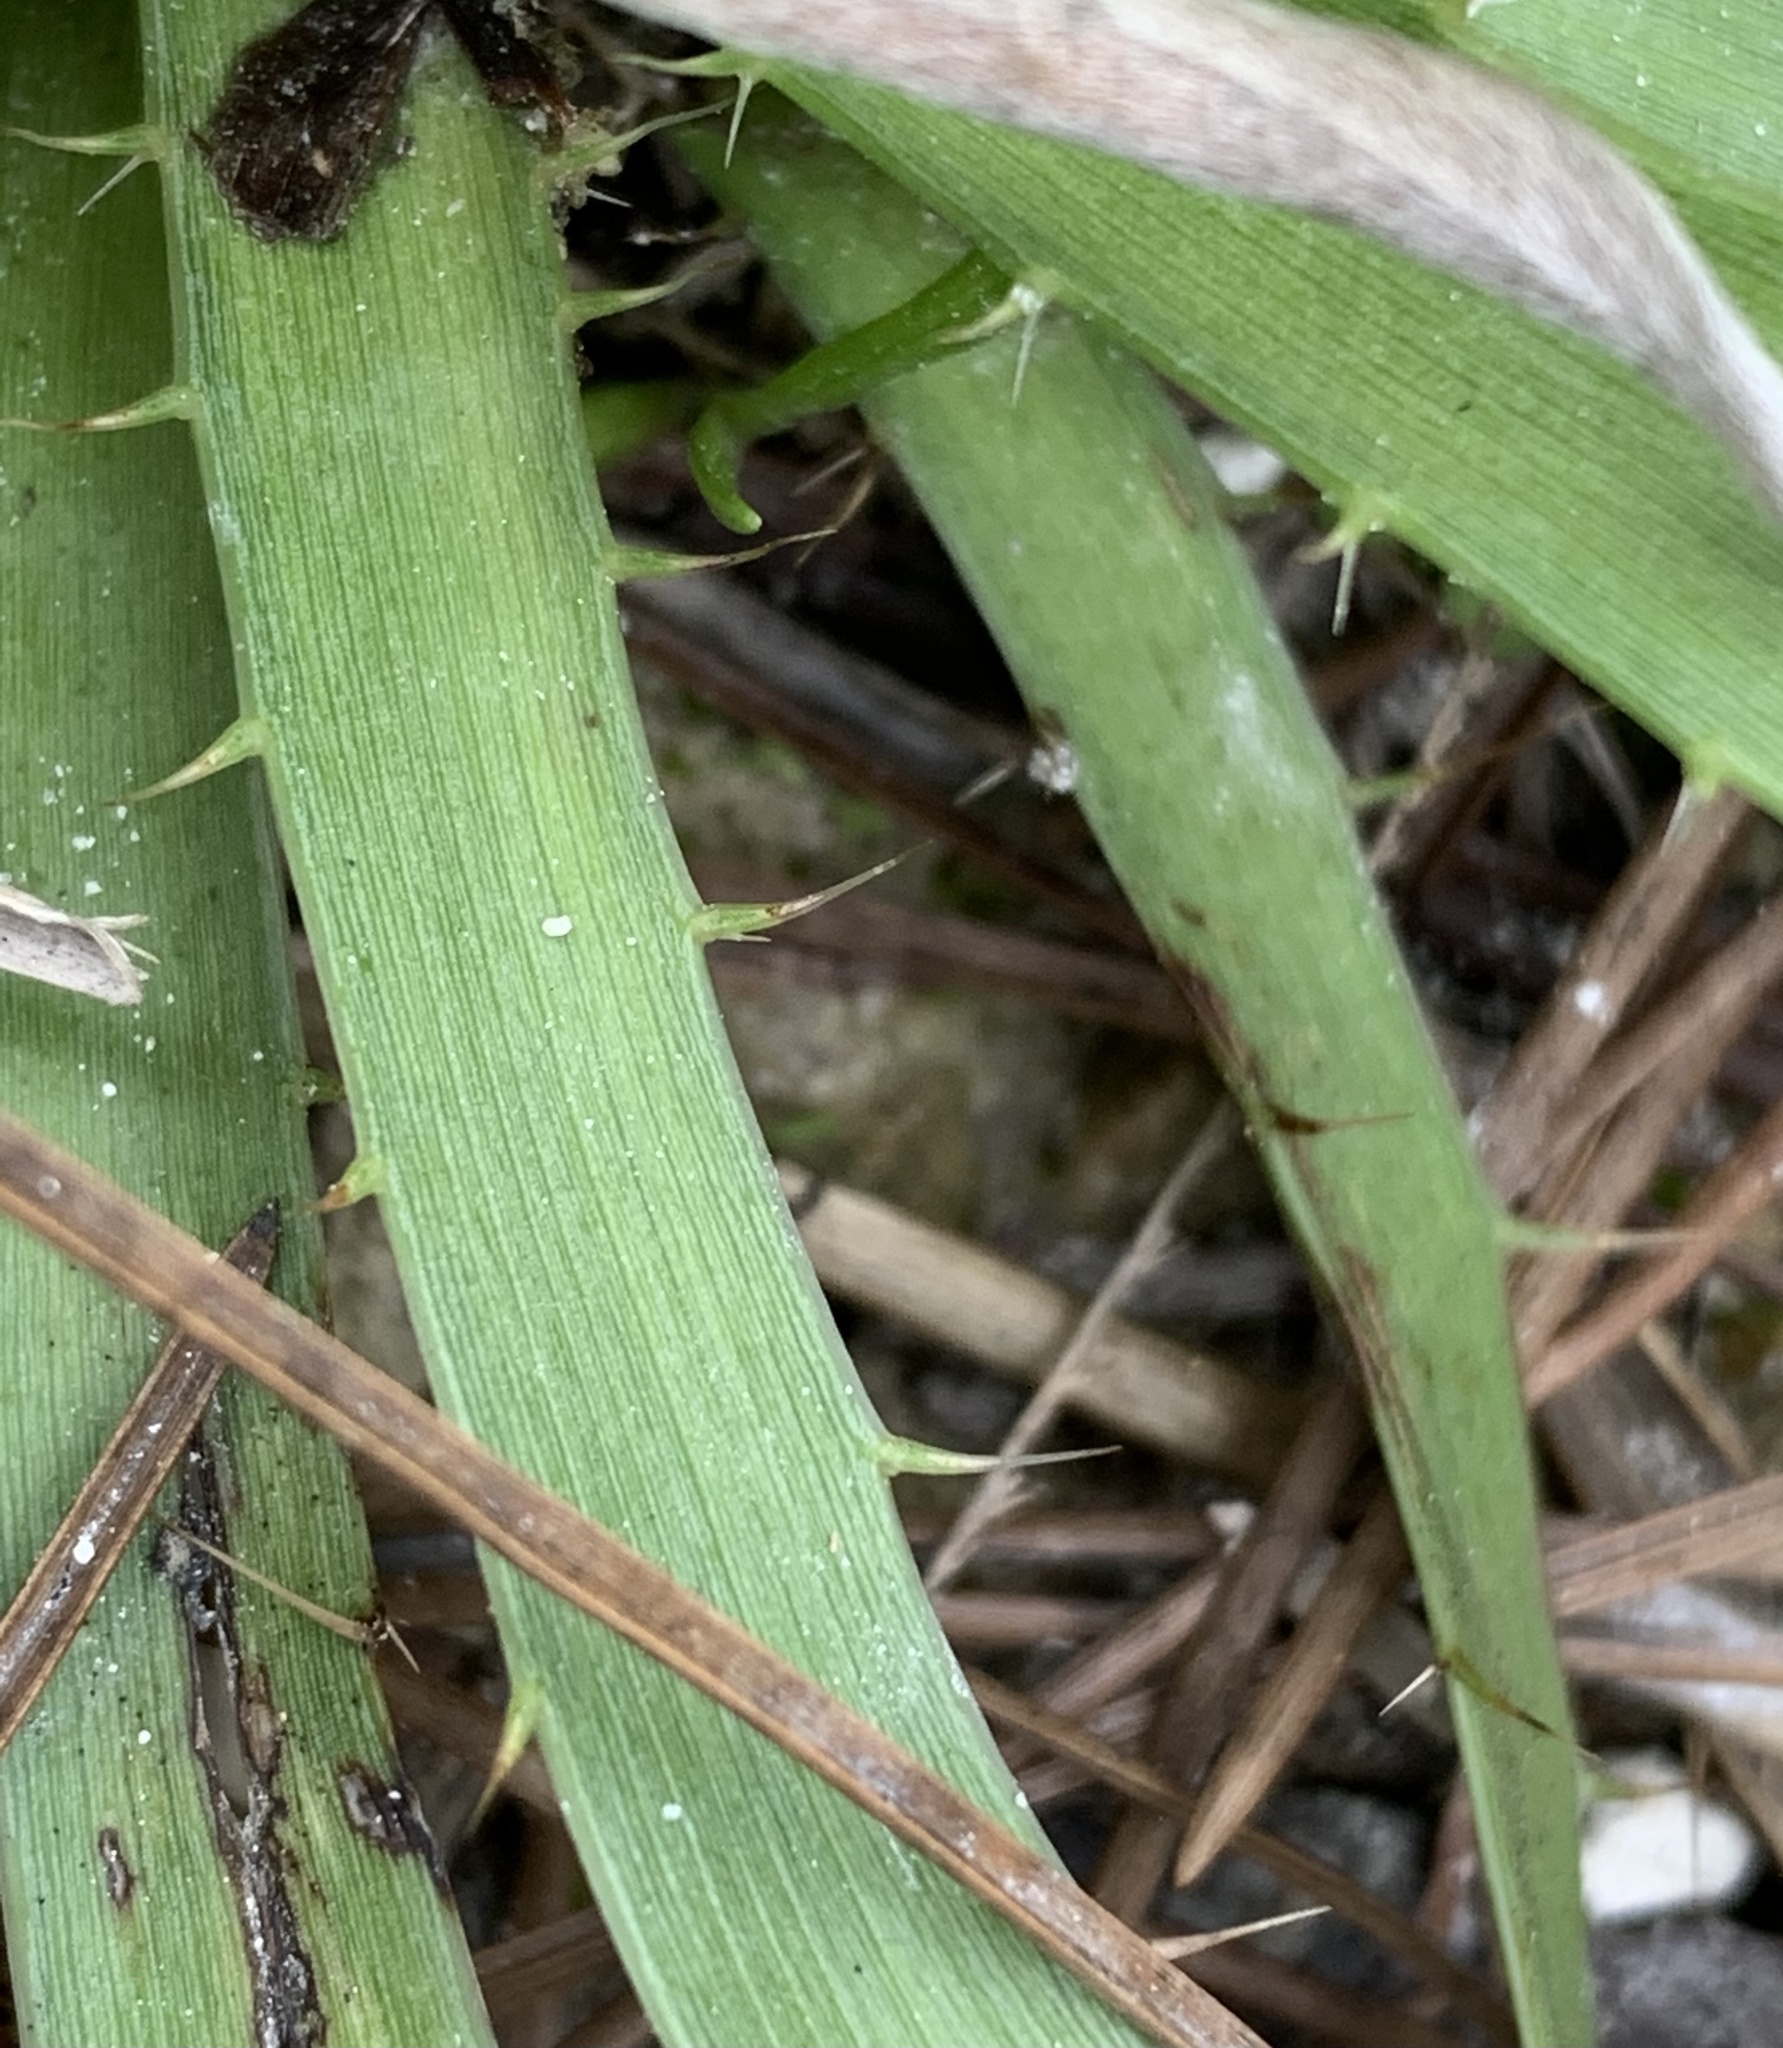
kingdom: Plantae
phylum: Tracheophyta
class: Magnoliopsida
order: Apiales
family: Apiaceae
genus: Eryngium
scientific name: Eryngium yuccifolium
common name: Button eryngo
